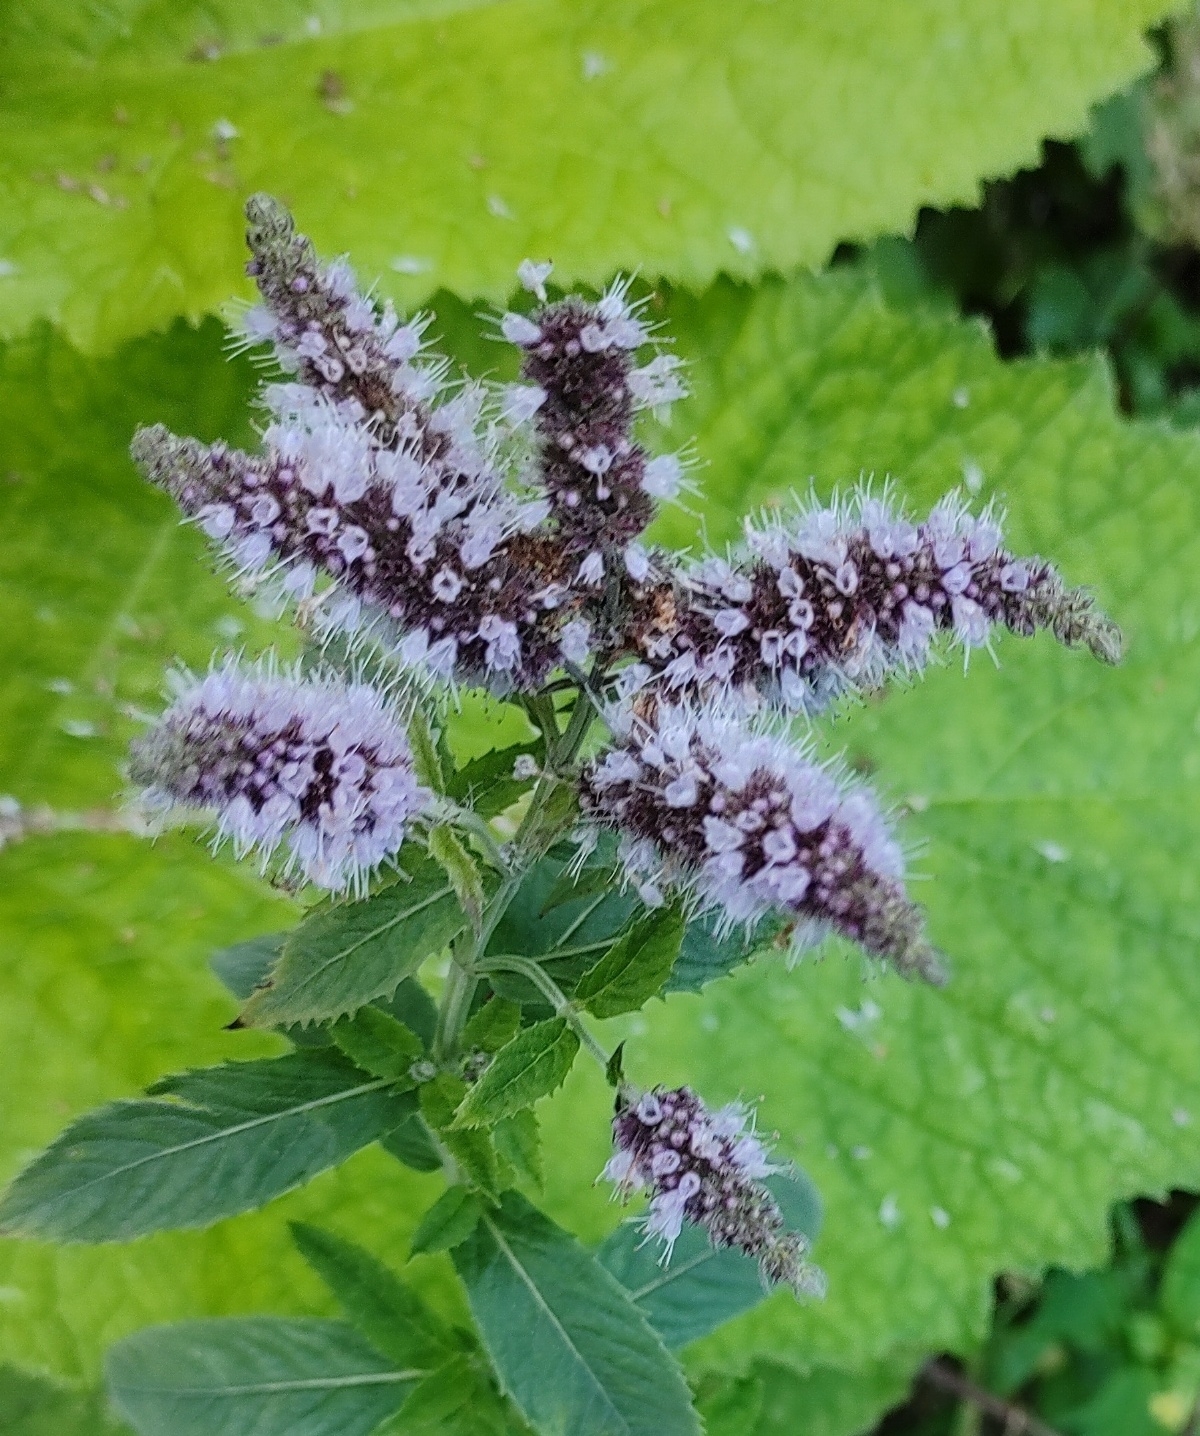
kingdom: Plantae
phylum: Tracheophyta
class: Magnoliopsida
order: Lamiales
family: Lamiaceae
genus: Mentha
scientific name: Mentha longifolia
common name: Horse mint
